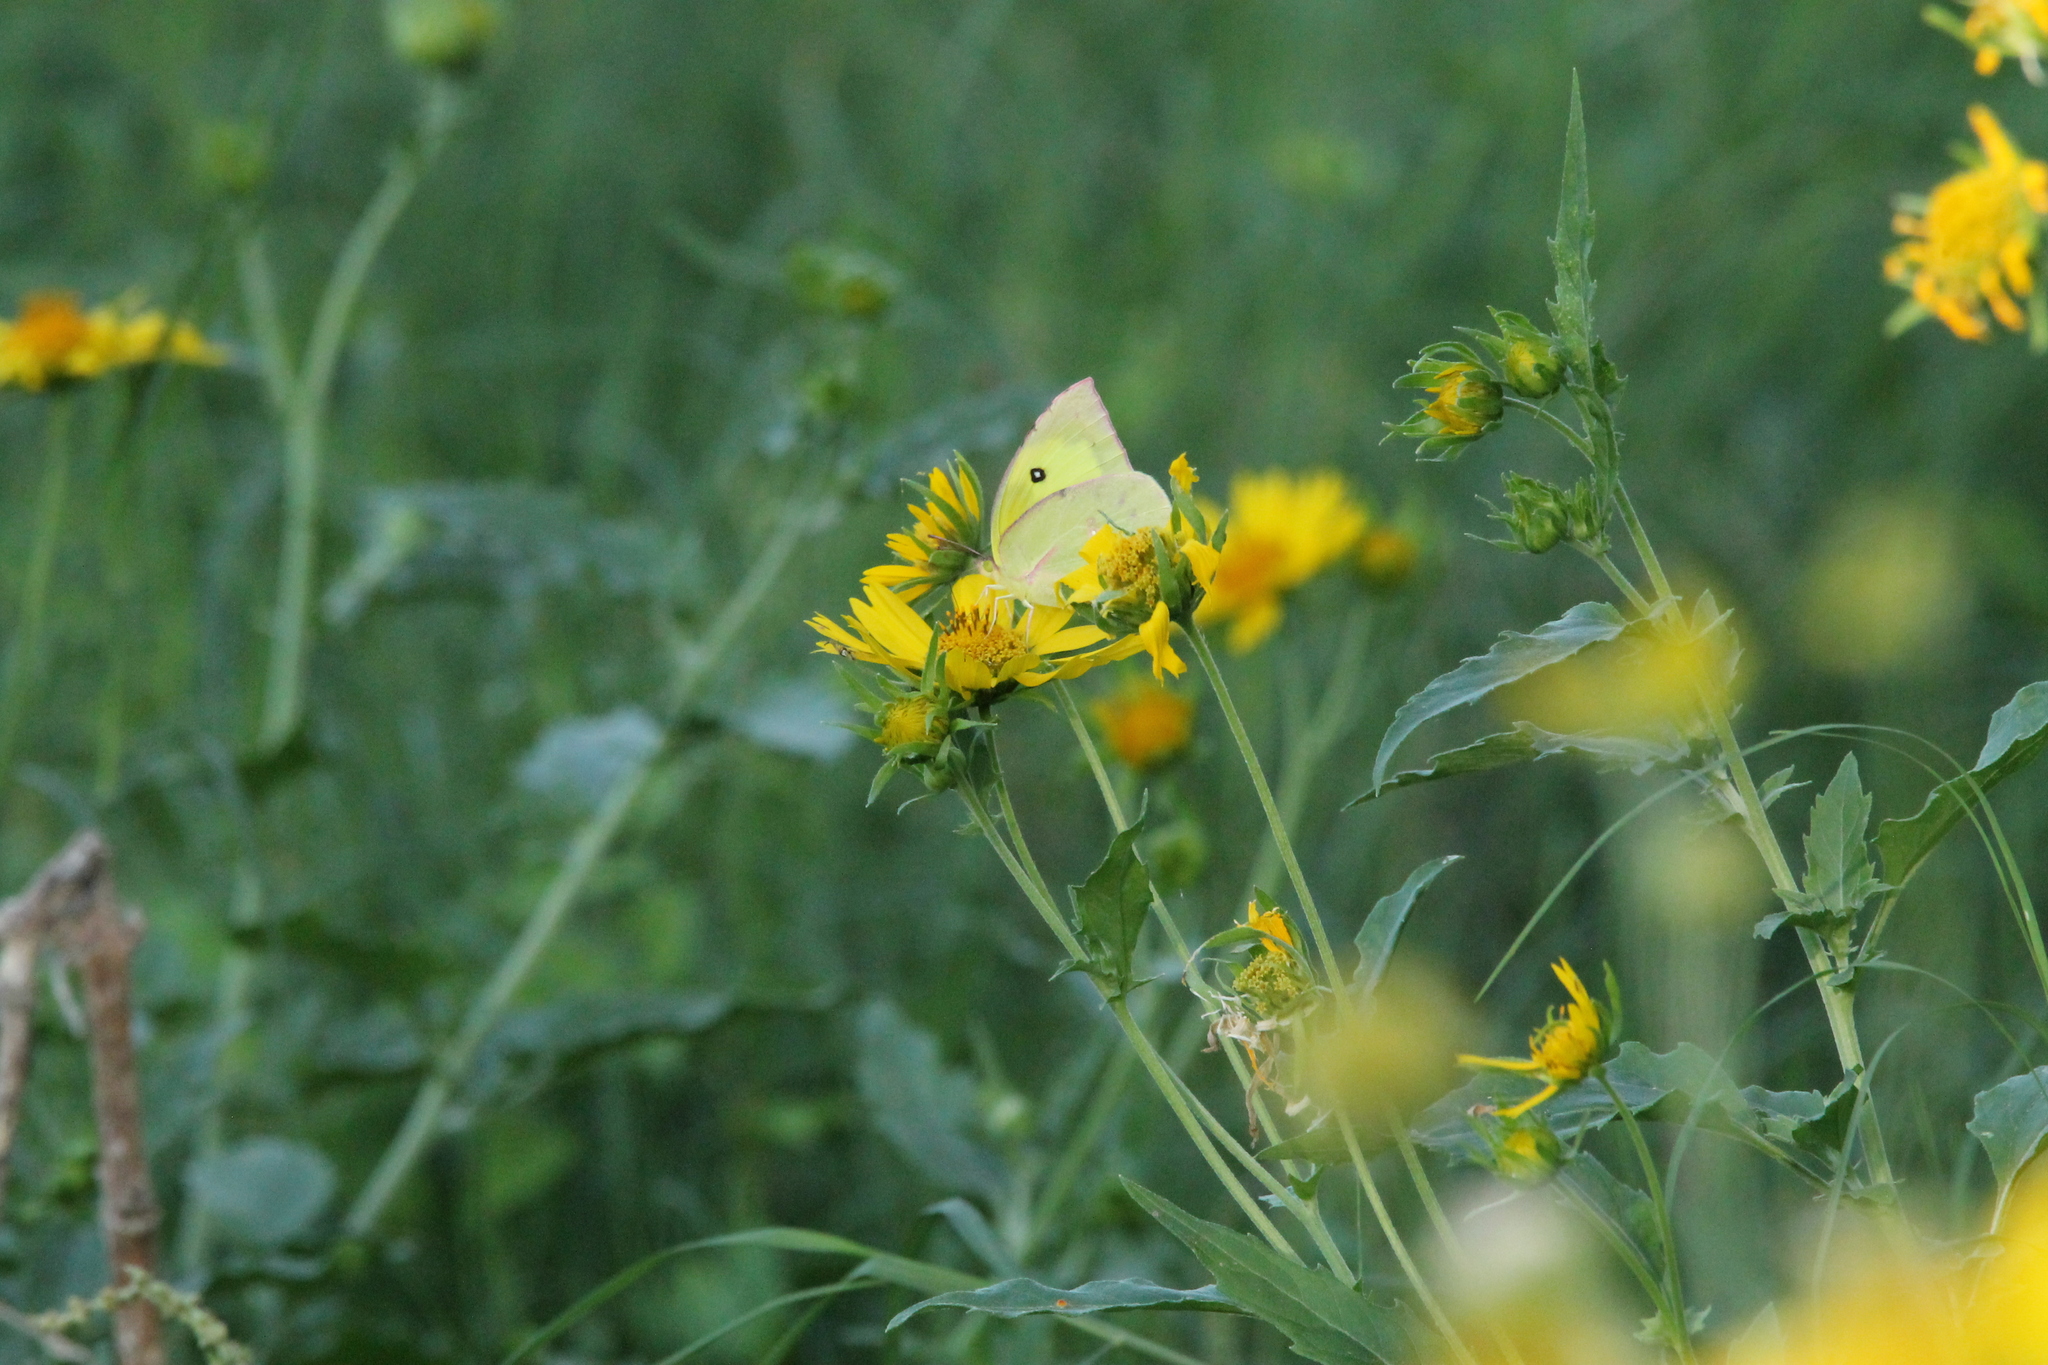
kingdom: Animalia
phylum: Arthropoda
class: Insecta
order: Lepidoptera
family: Pieridae
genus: Zerene
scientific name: Zerene cesonia
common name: Southern dogface
